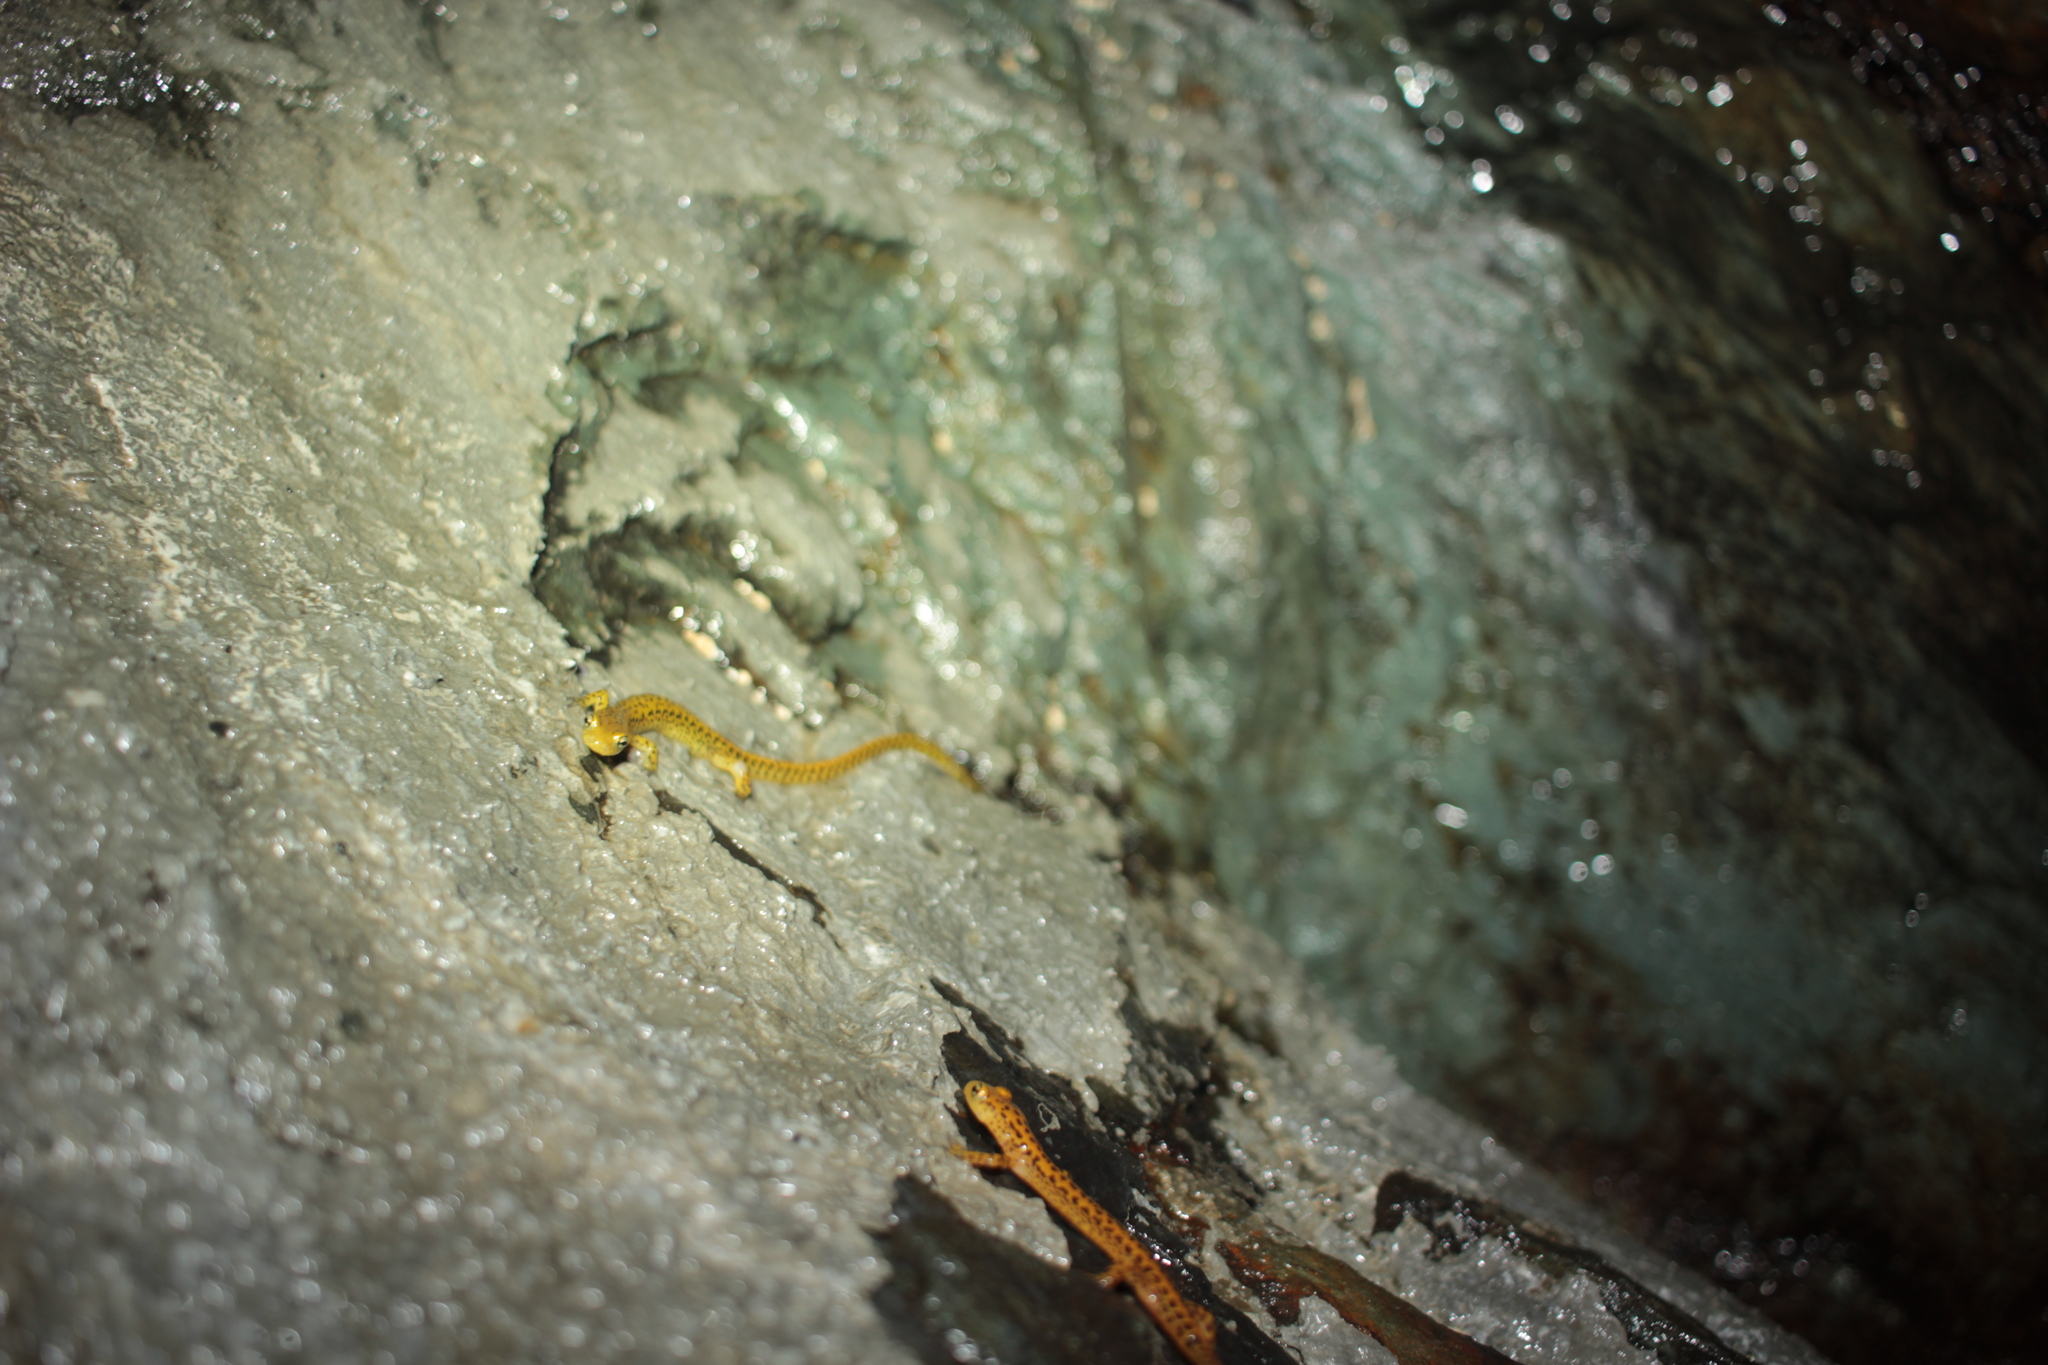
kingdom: Animalia
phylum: Chordata
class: Amphibia
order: Caudata
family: Plethodontidae
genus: Eurycea
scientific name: Eurycea longicauda
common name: Long-tailed salamander
